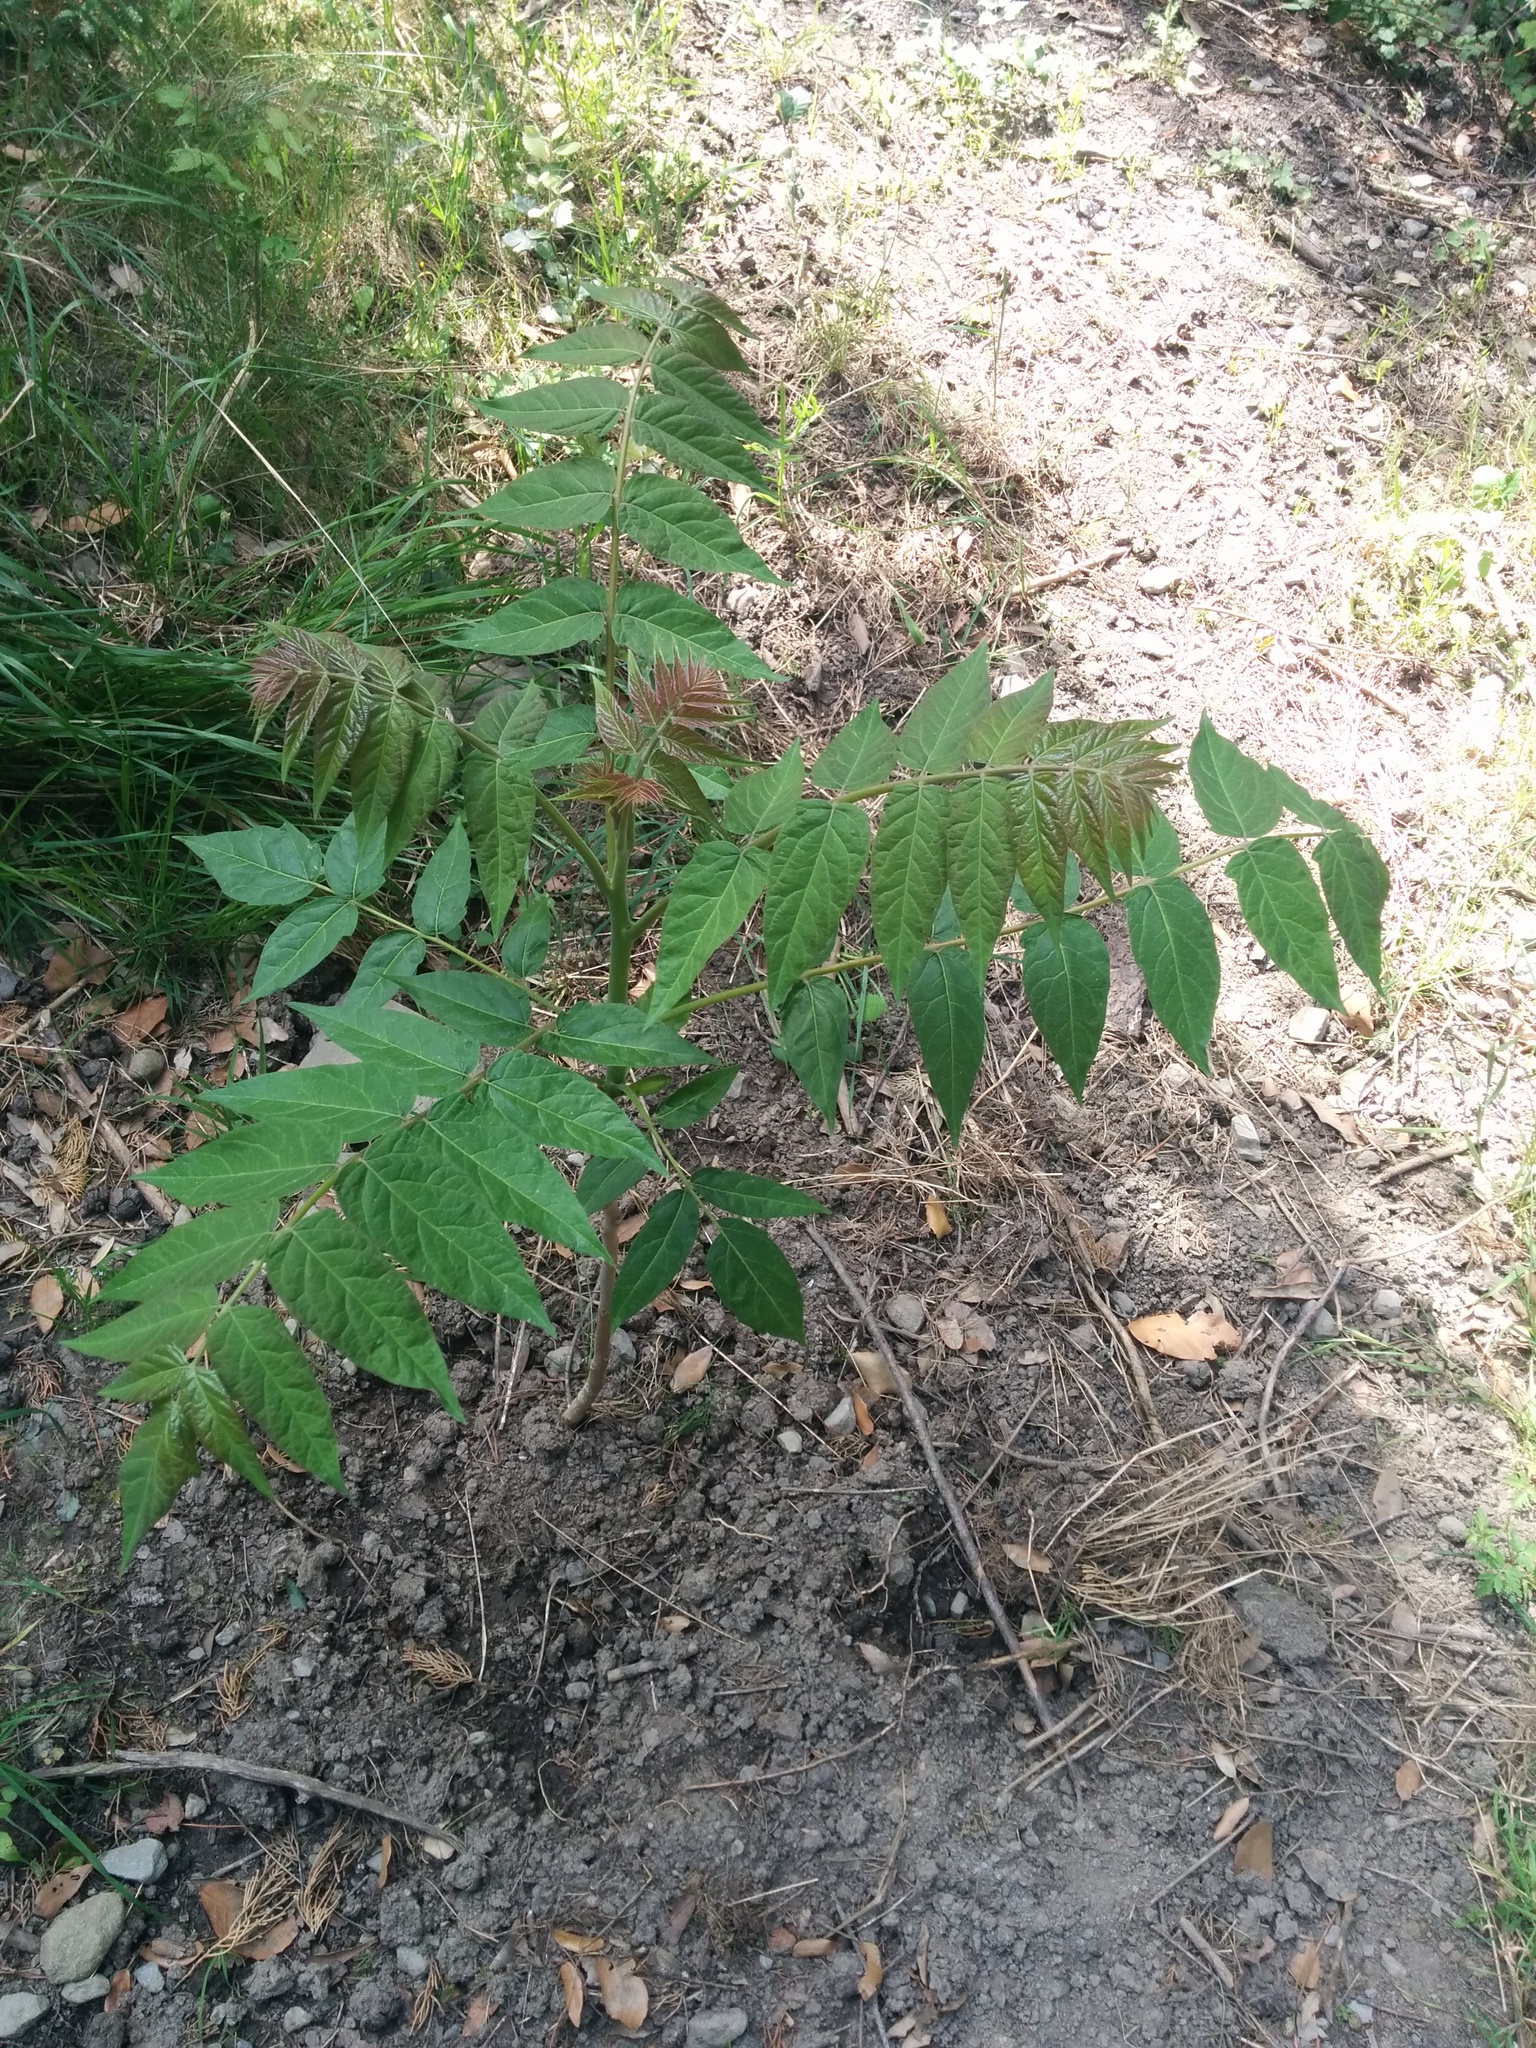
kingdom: Plantae
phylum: Tracheophyta
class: Magnoliopsida
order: Sapindales
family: Simaroubaceae
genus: Ailanthus
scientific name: Ailanthus altissima
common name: Tree-of-heaven
